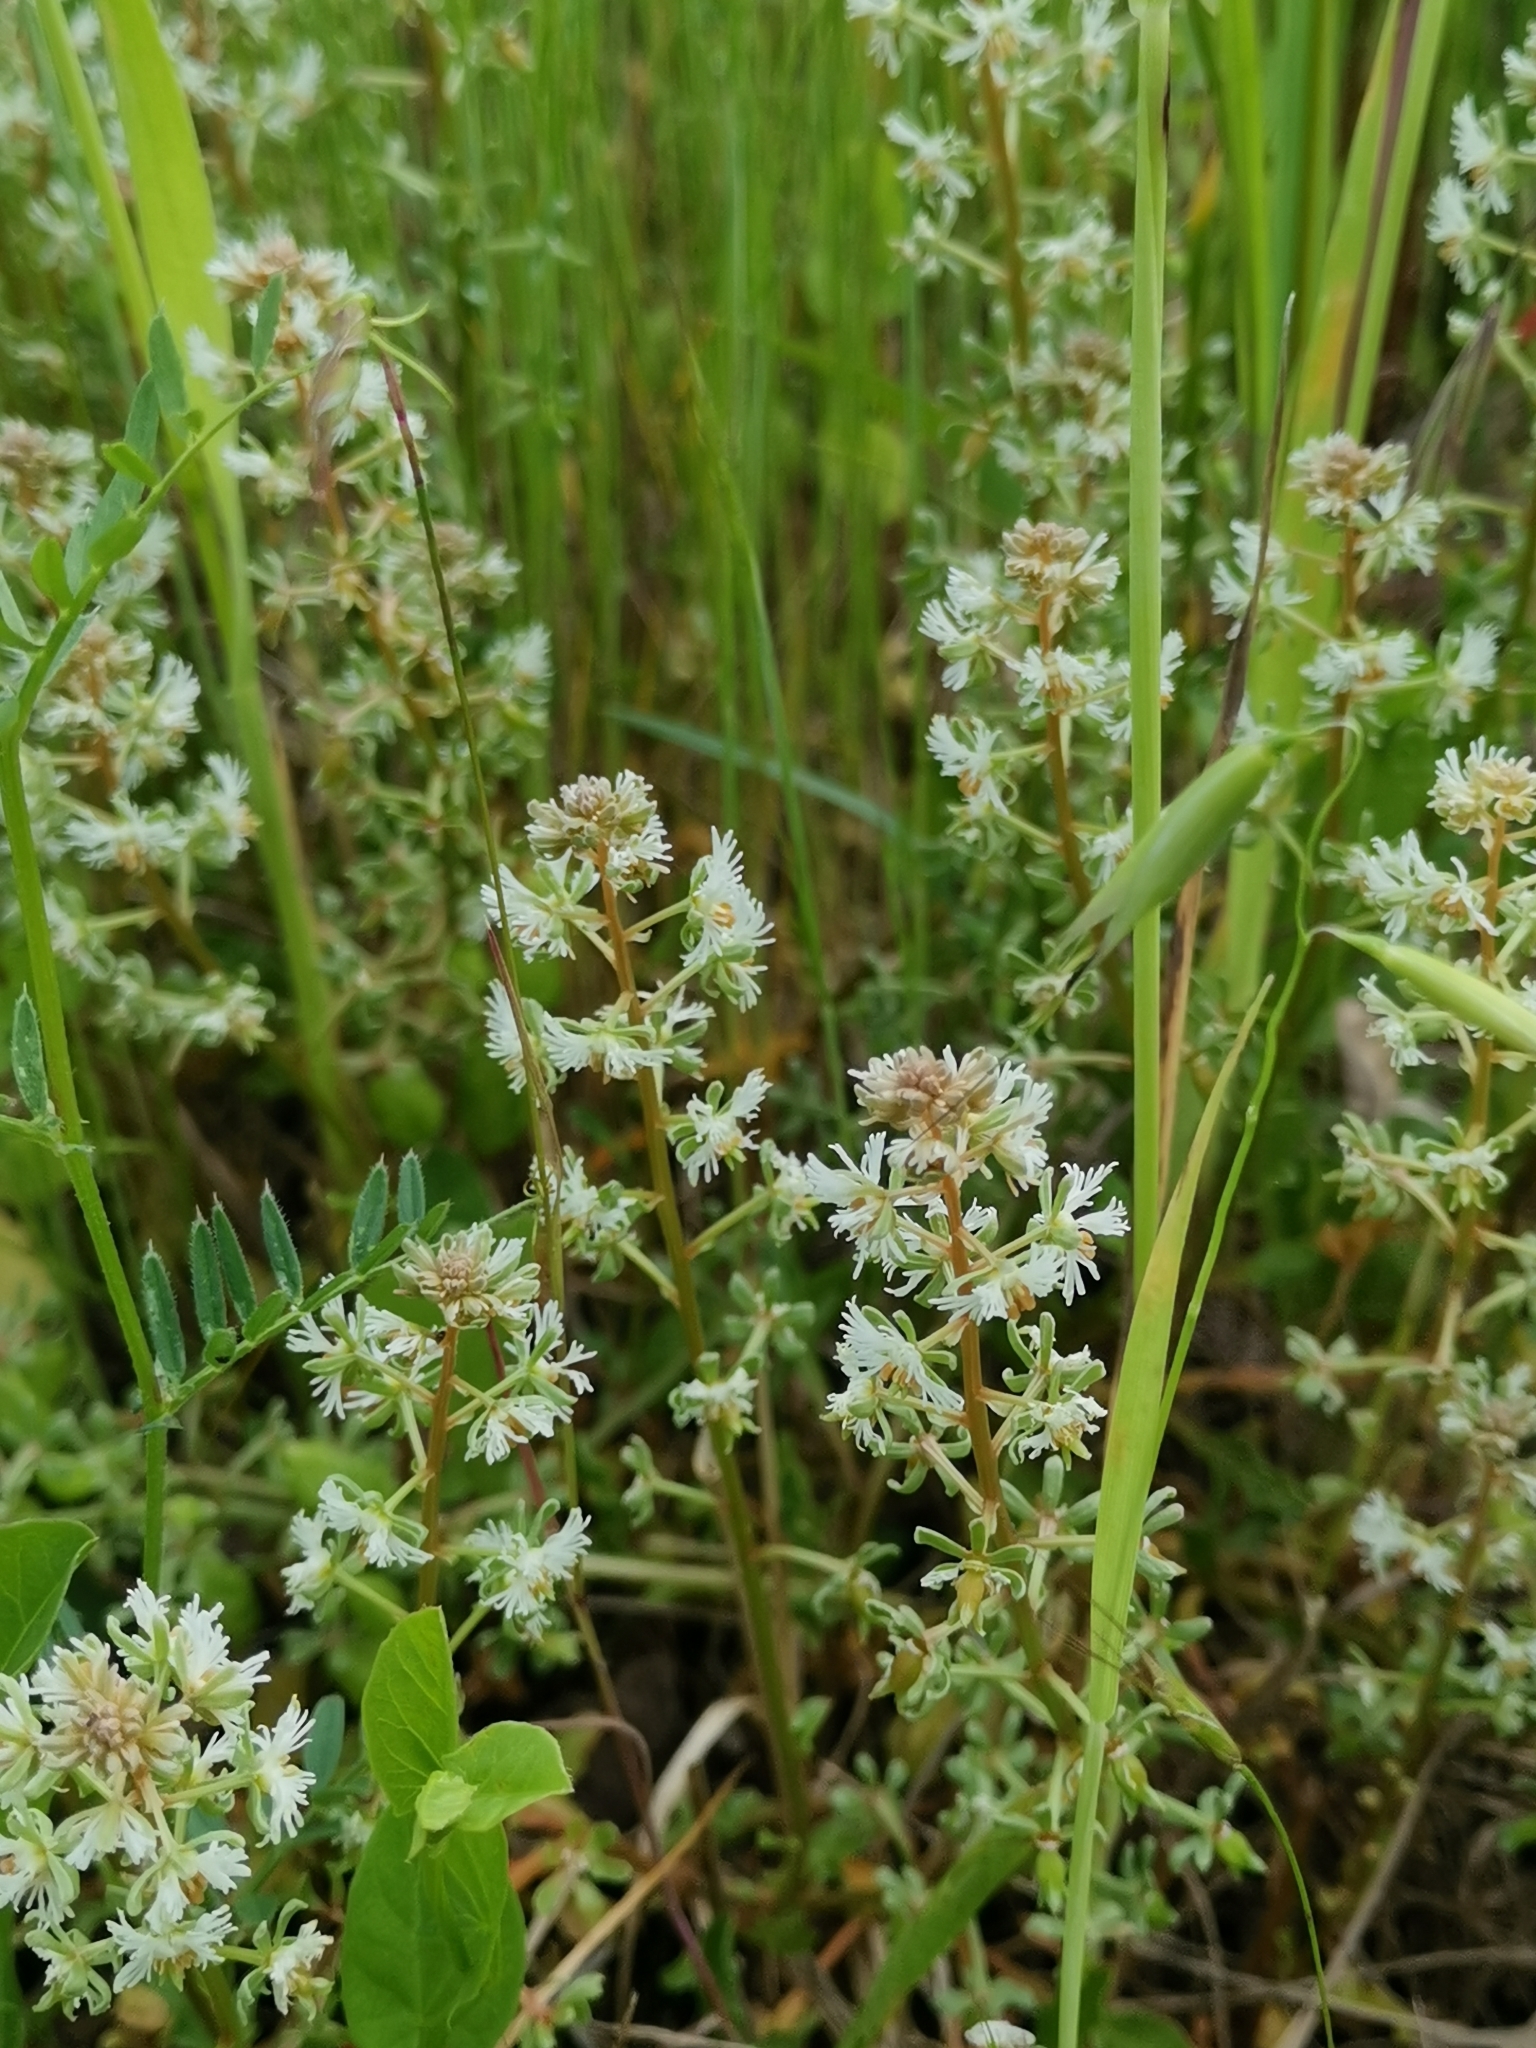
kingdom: Plantae
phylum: Tracheophyta
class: Magnoliopsida
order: Brassicales
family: Resedaceae
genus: Reseda
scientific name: Reseda phyteuma
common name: Corn mignonette
